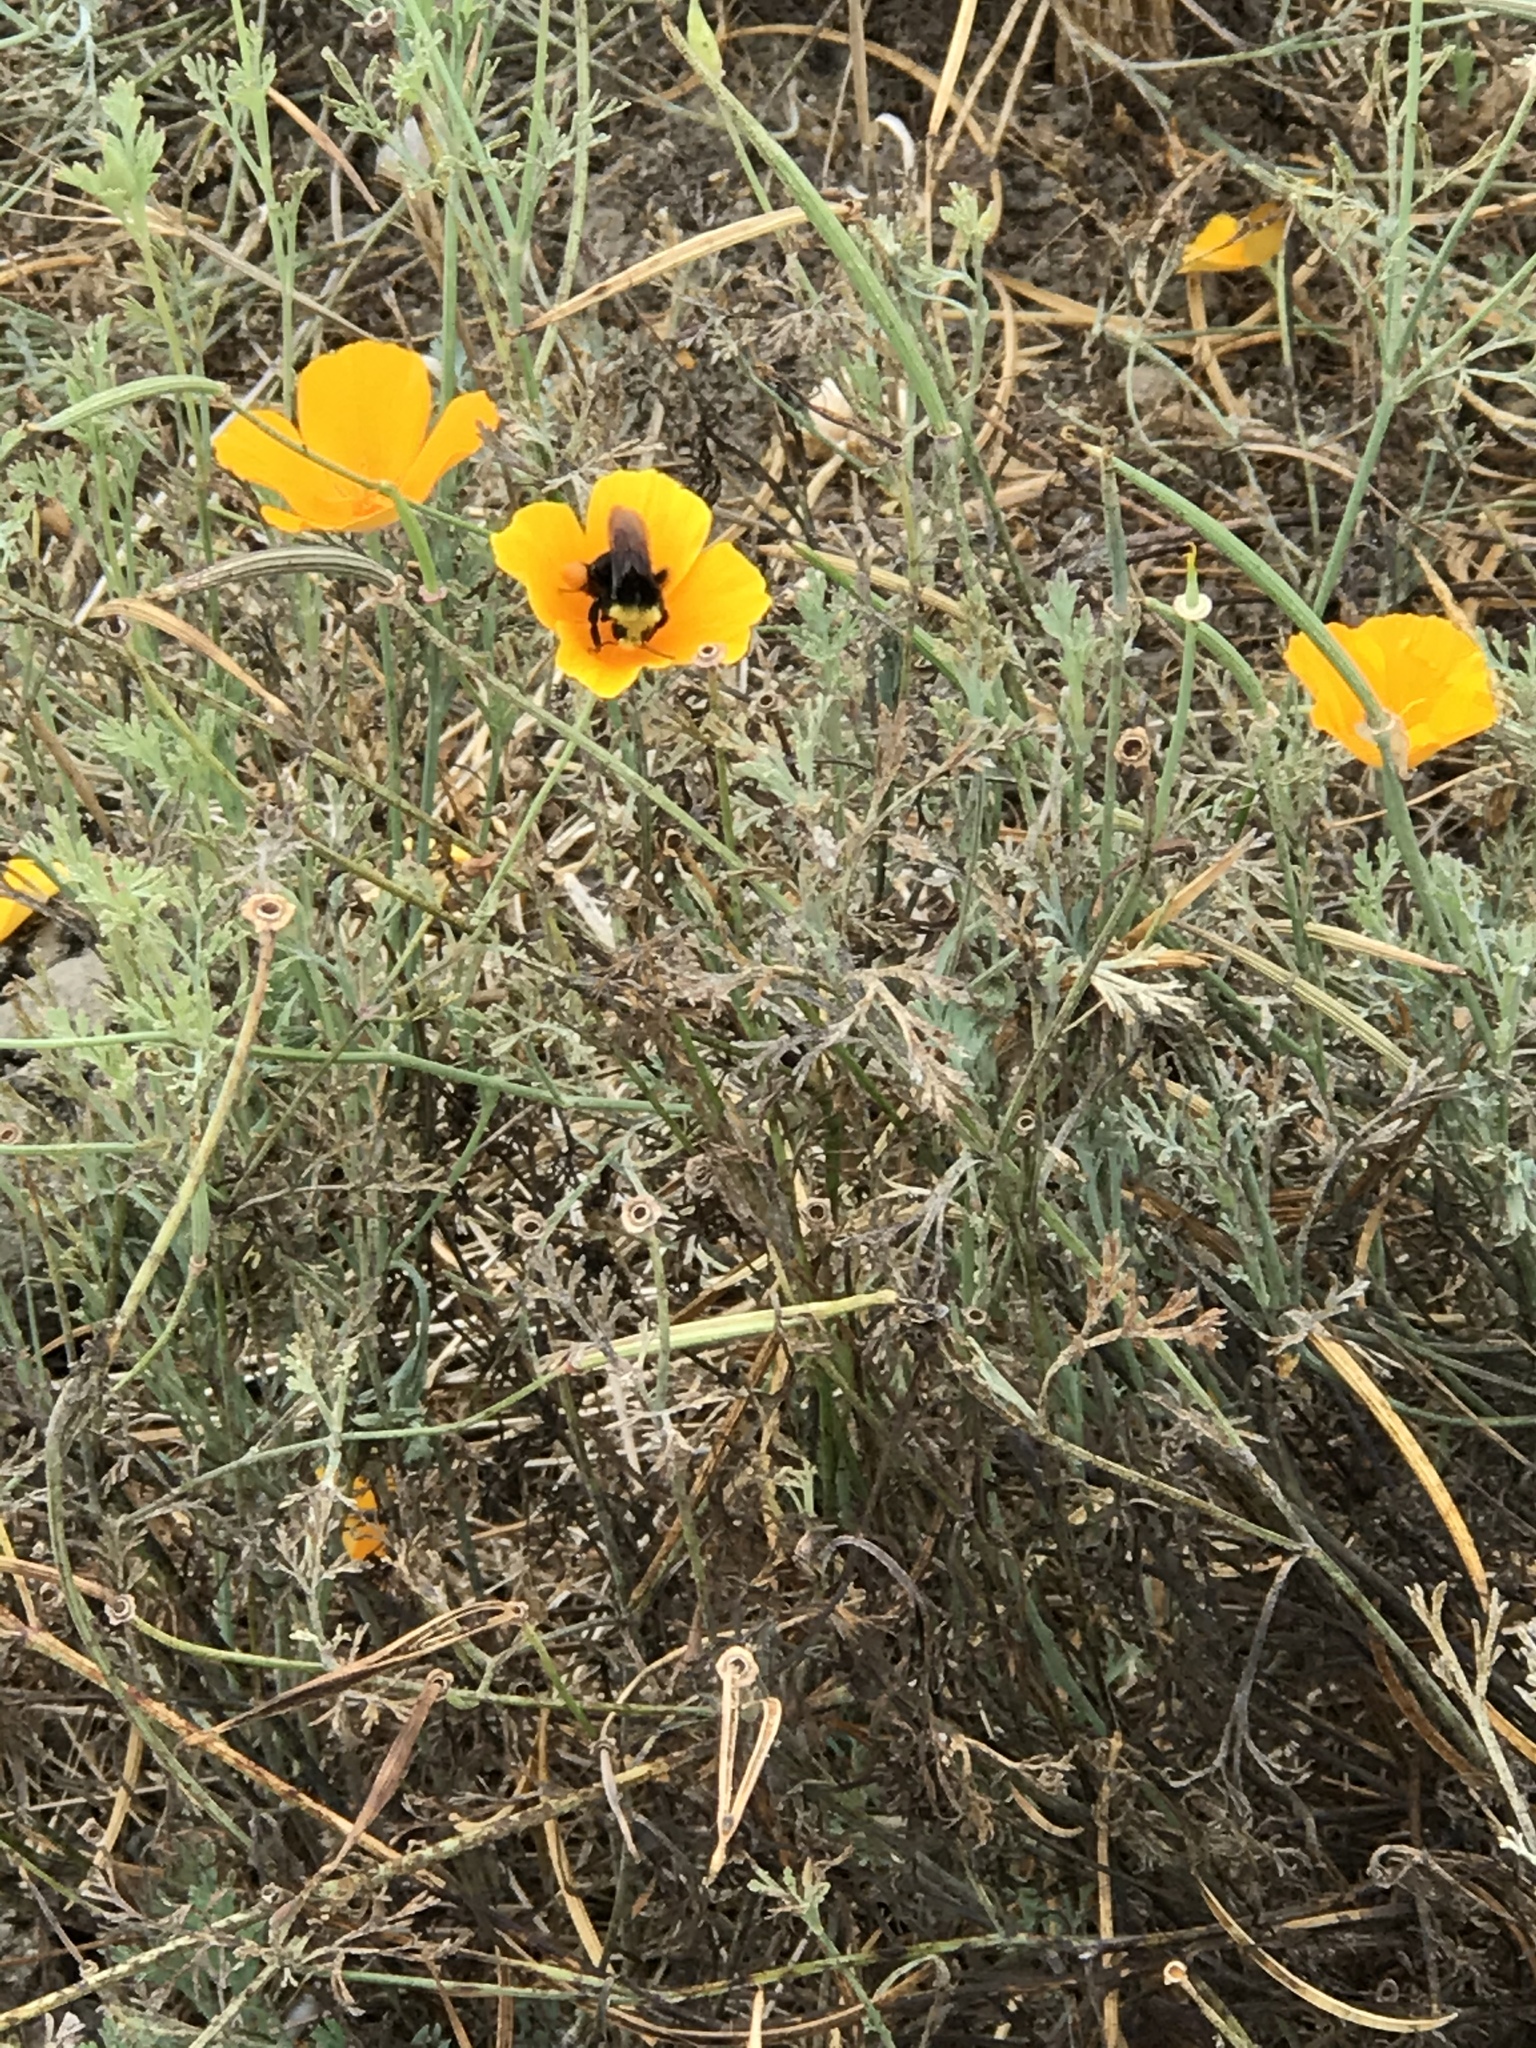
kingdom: Animalia
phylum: Arthropoda
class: Insecta
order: Hymenoptera
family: Apidae
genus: Bombus
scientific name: Bombus vosnesenskii
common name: Vosnesensky bumble bee
